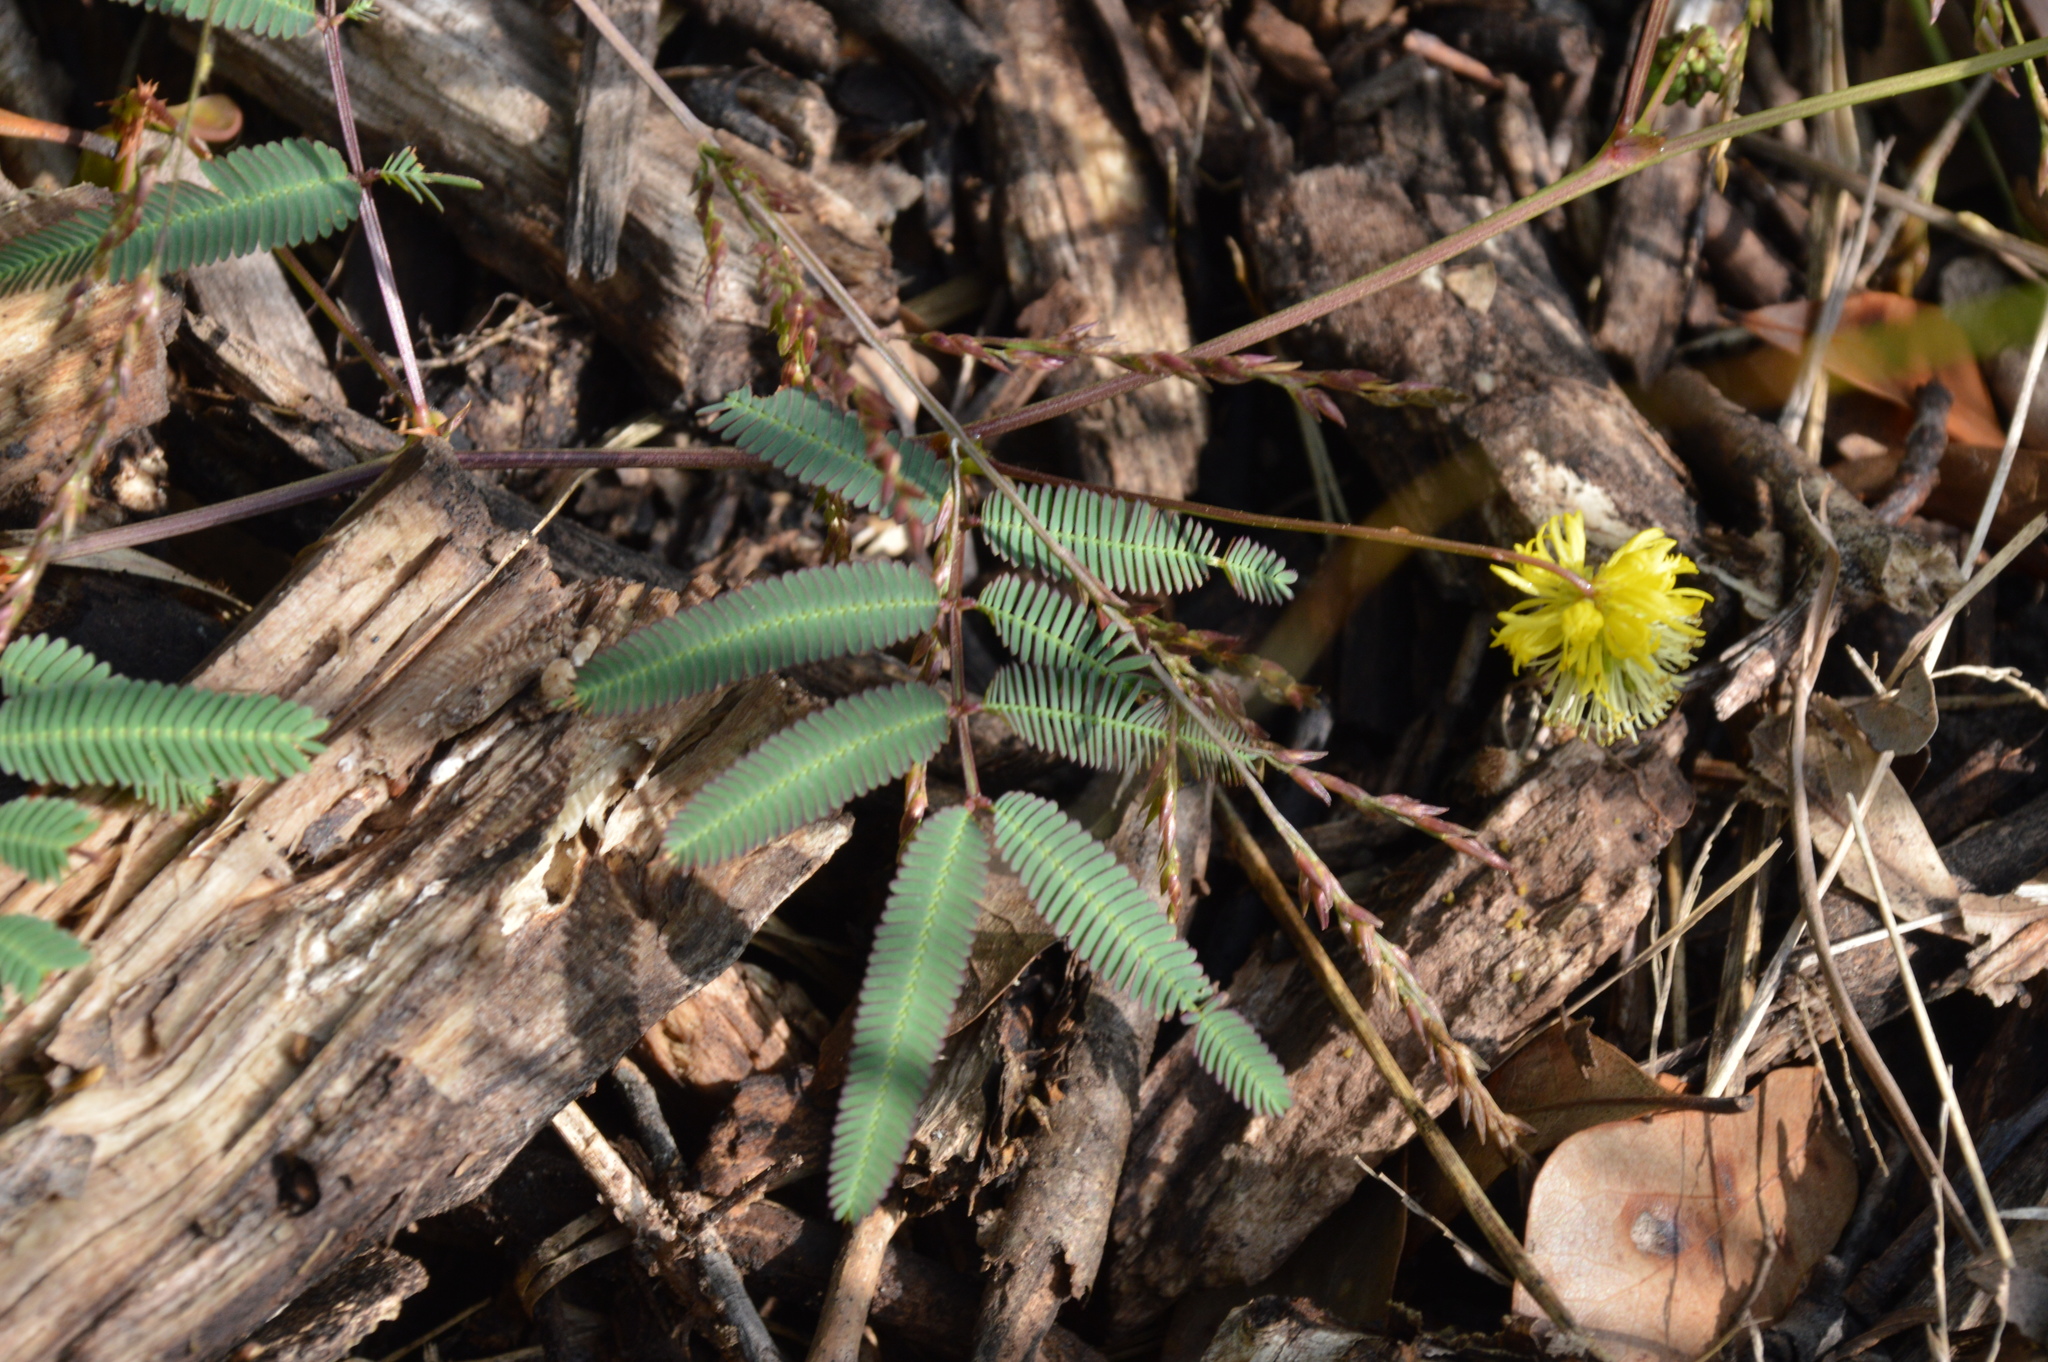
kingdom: Plantae
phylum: Tracheophyta
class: Magnoliopsida
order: Fabales
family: Fabaceae
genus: Neptunia
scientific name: Neptunia pubescens
